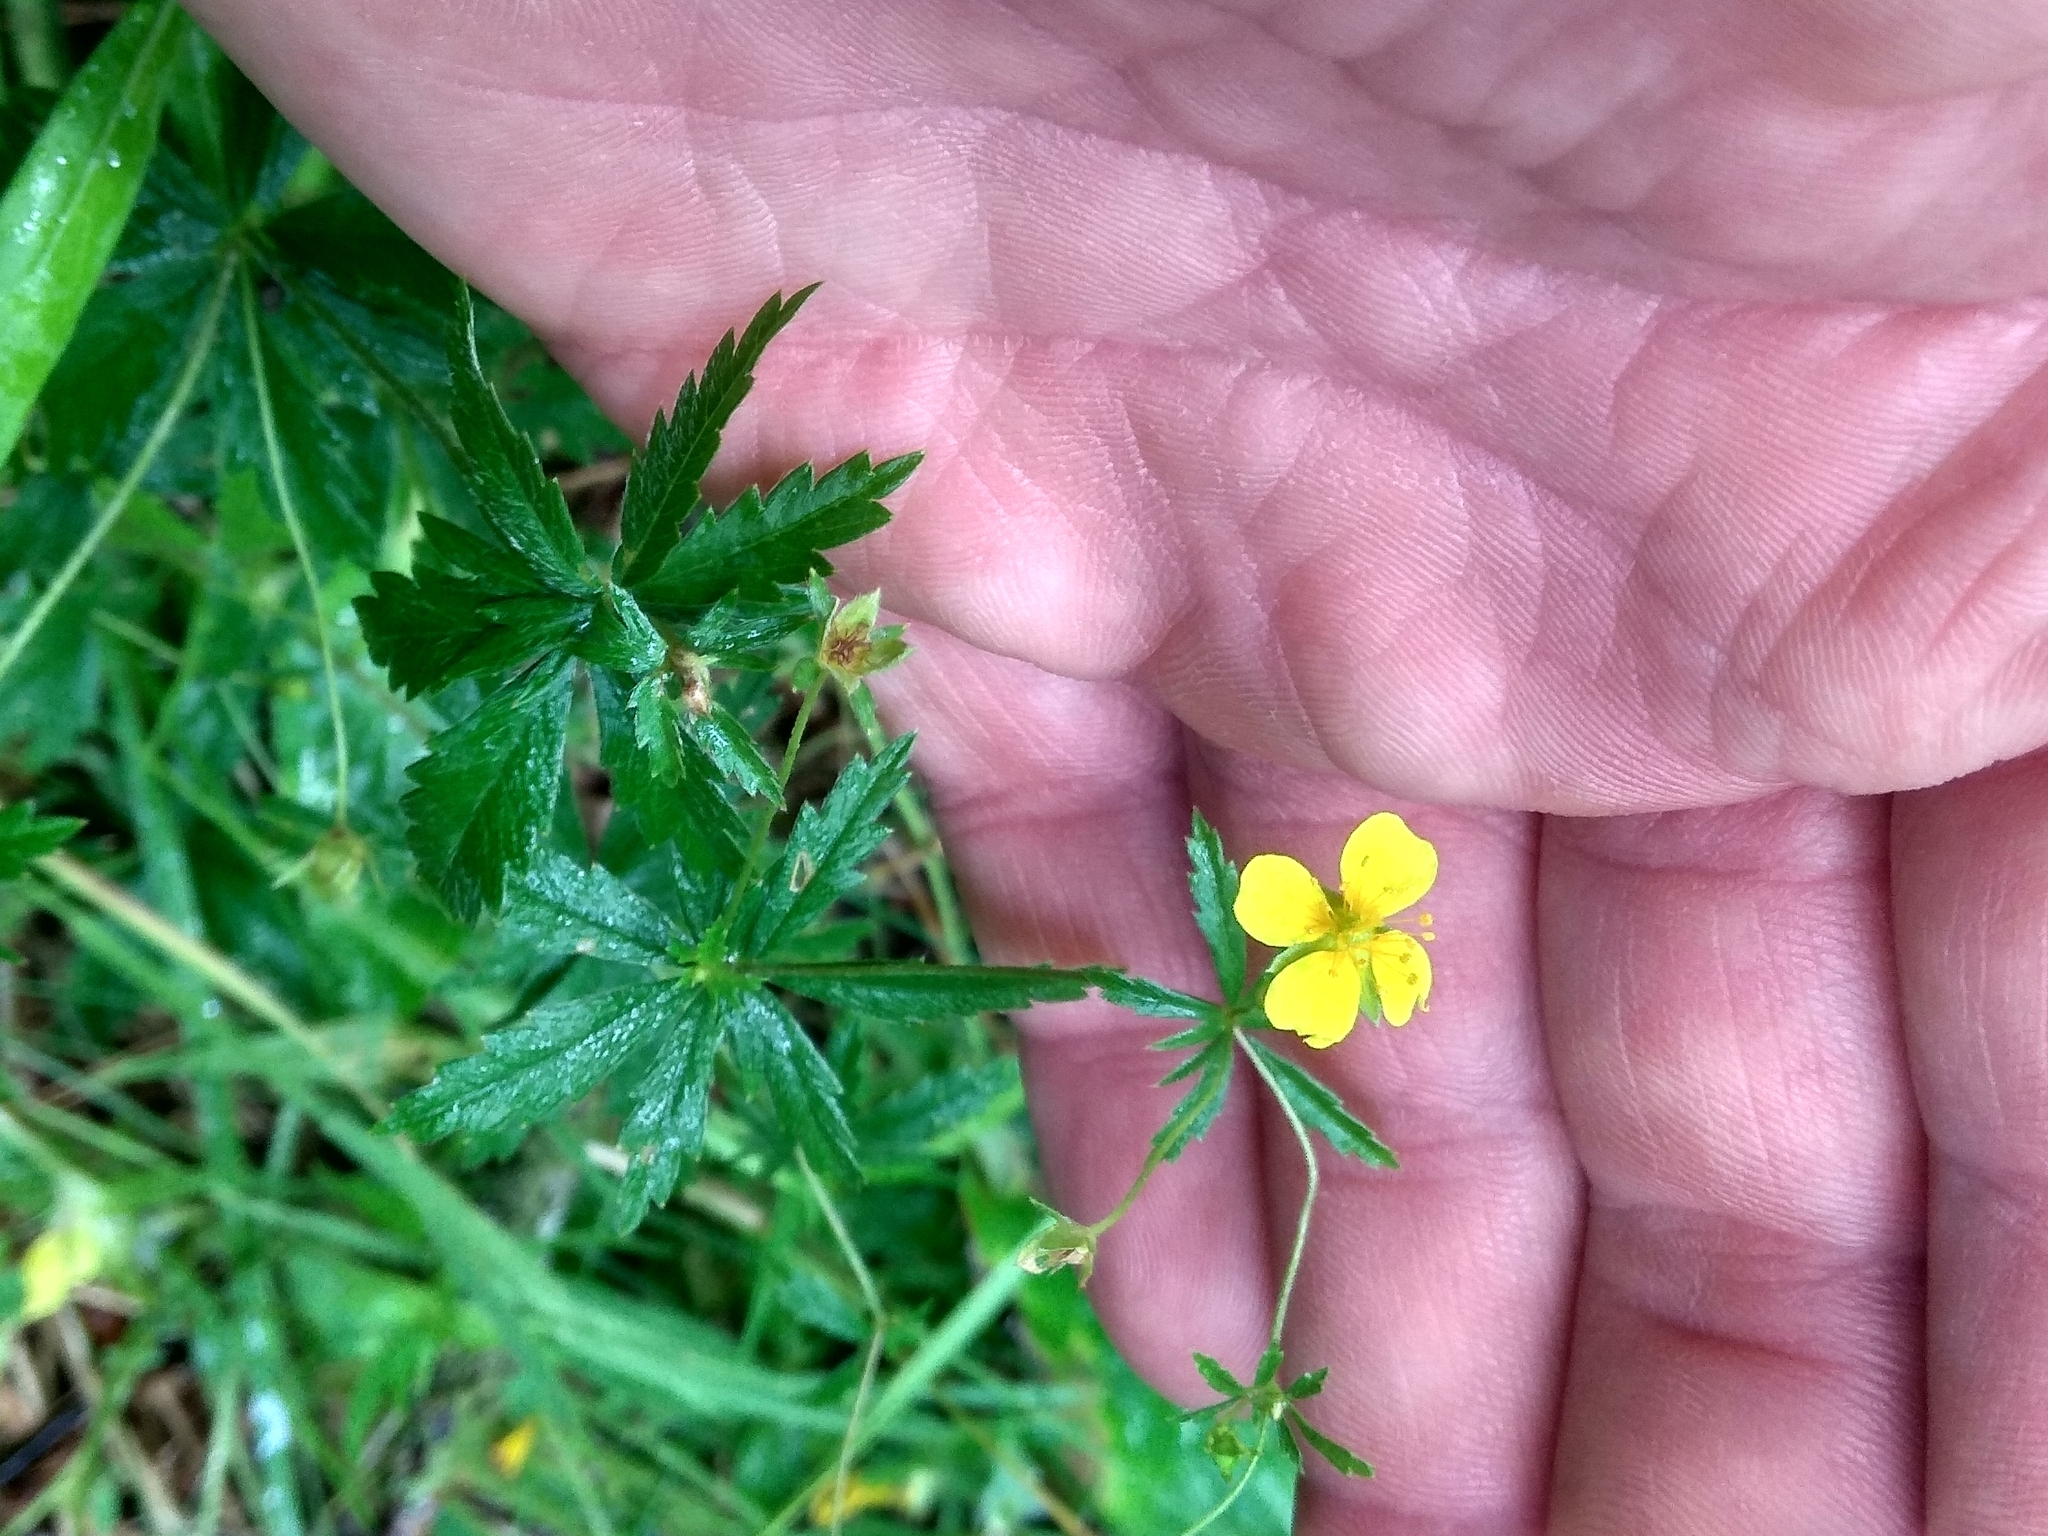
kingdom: Plantae
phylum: Tracheophyta
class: Magnoliopsida
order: Rosales
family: Rosaceae
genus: Potentilla
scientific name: Potentilla erecta
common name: Tormentil
